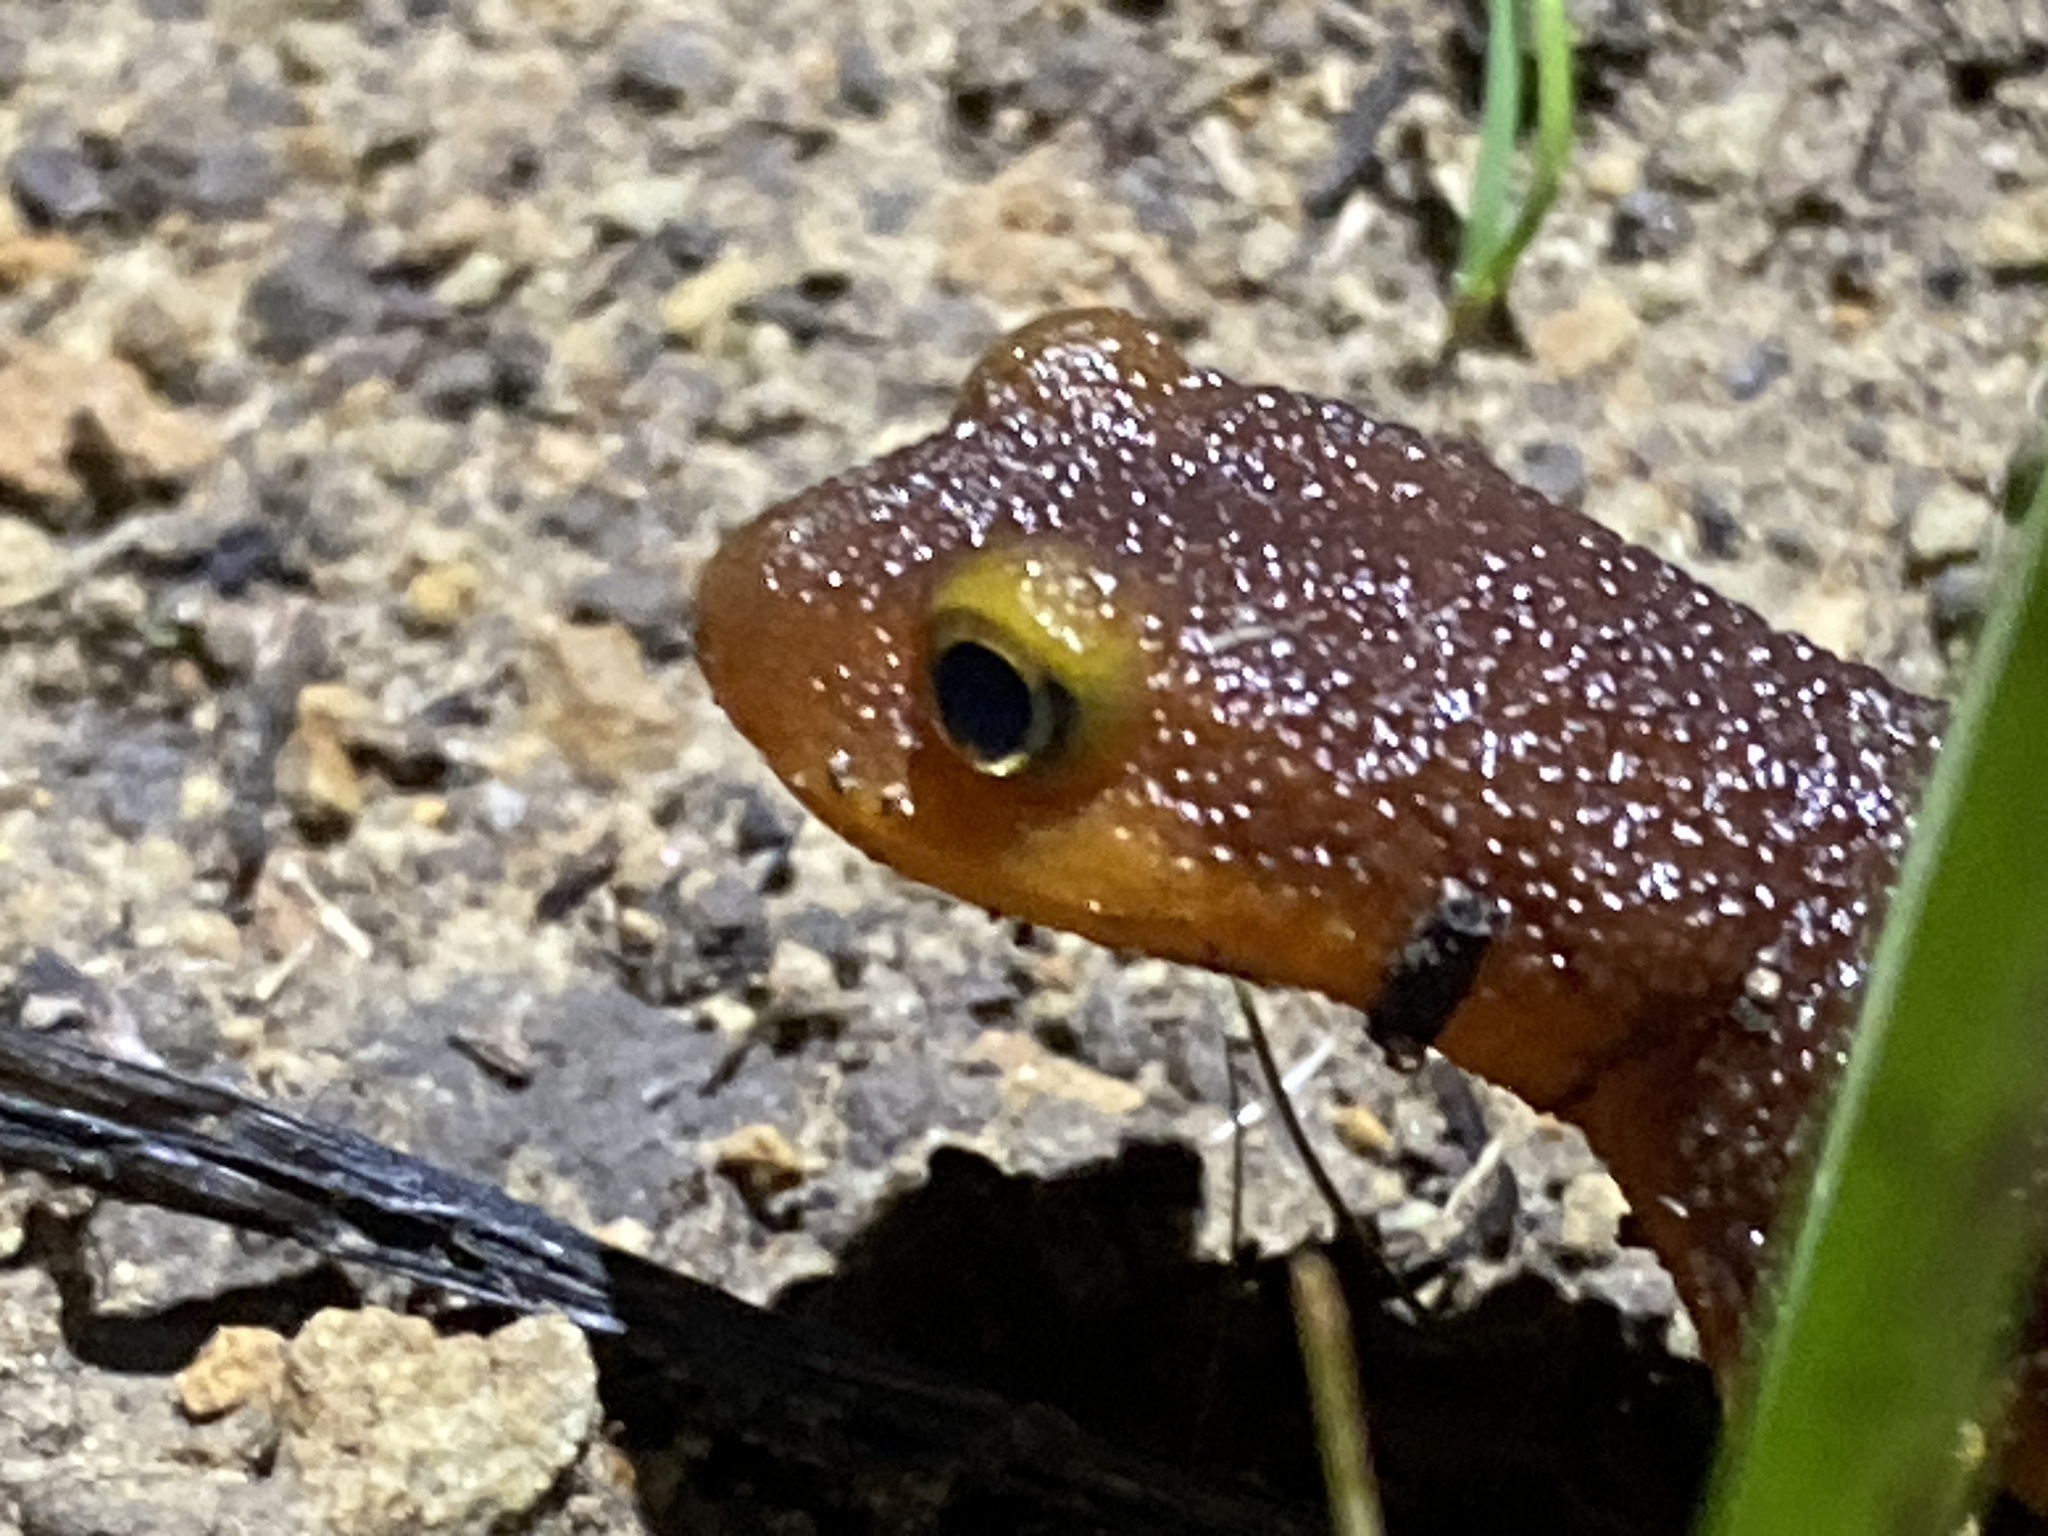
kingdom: Animalia
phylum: Chordata
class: Amphibia
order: Caudata
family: Salamandridae
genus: Taricha
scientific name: Taricha torosa
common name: California newt
